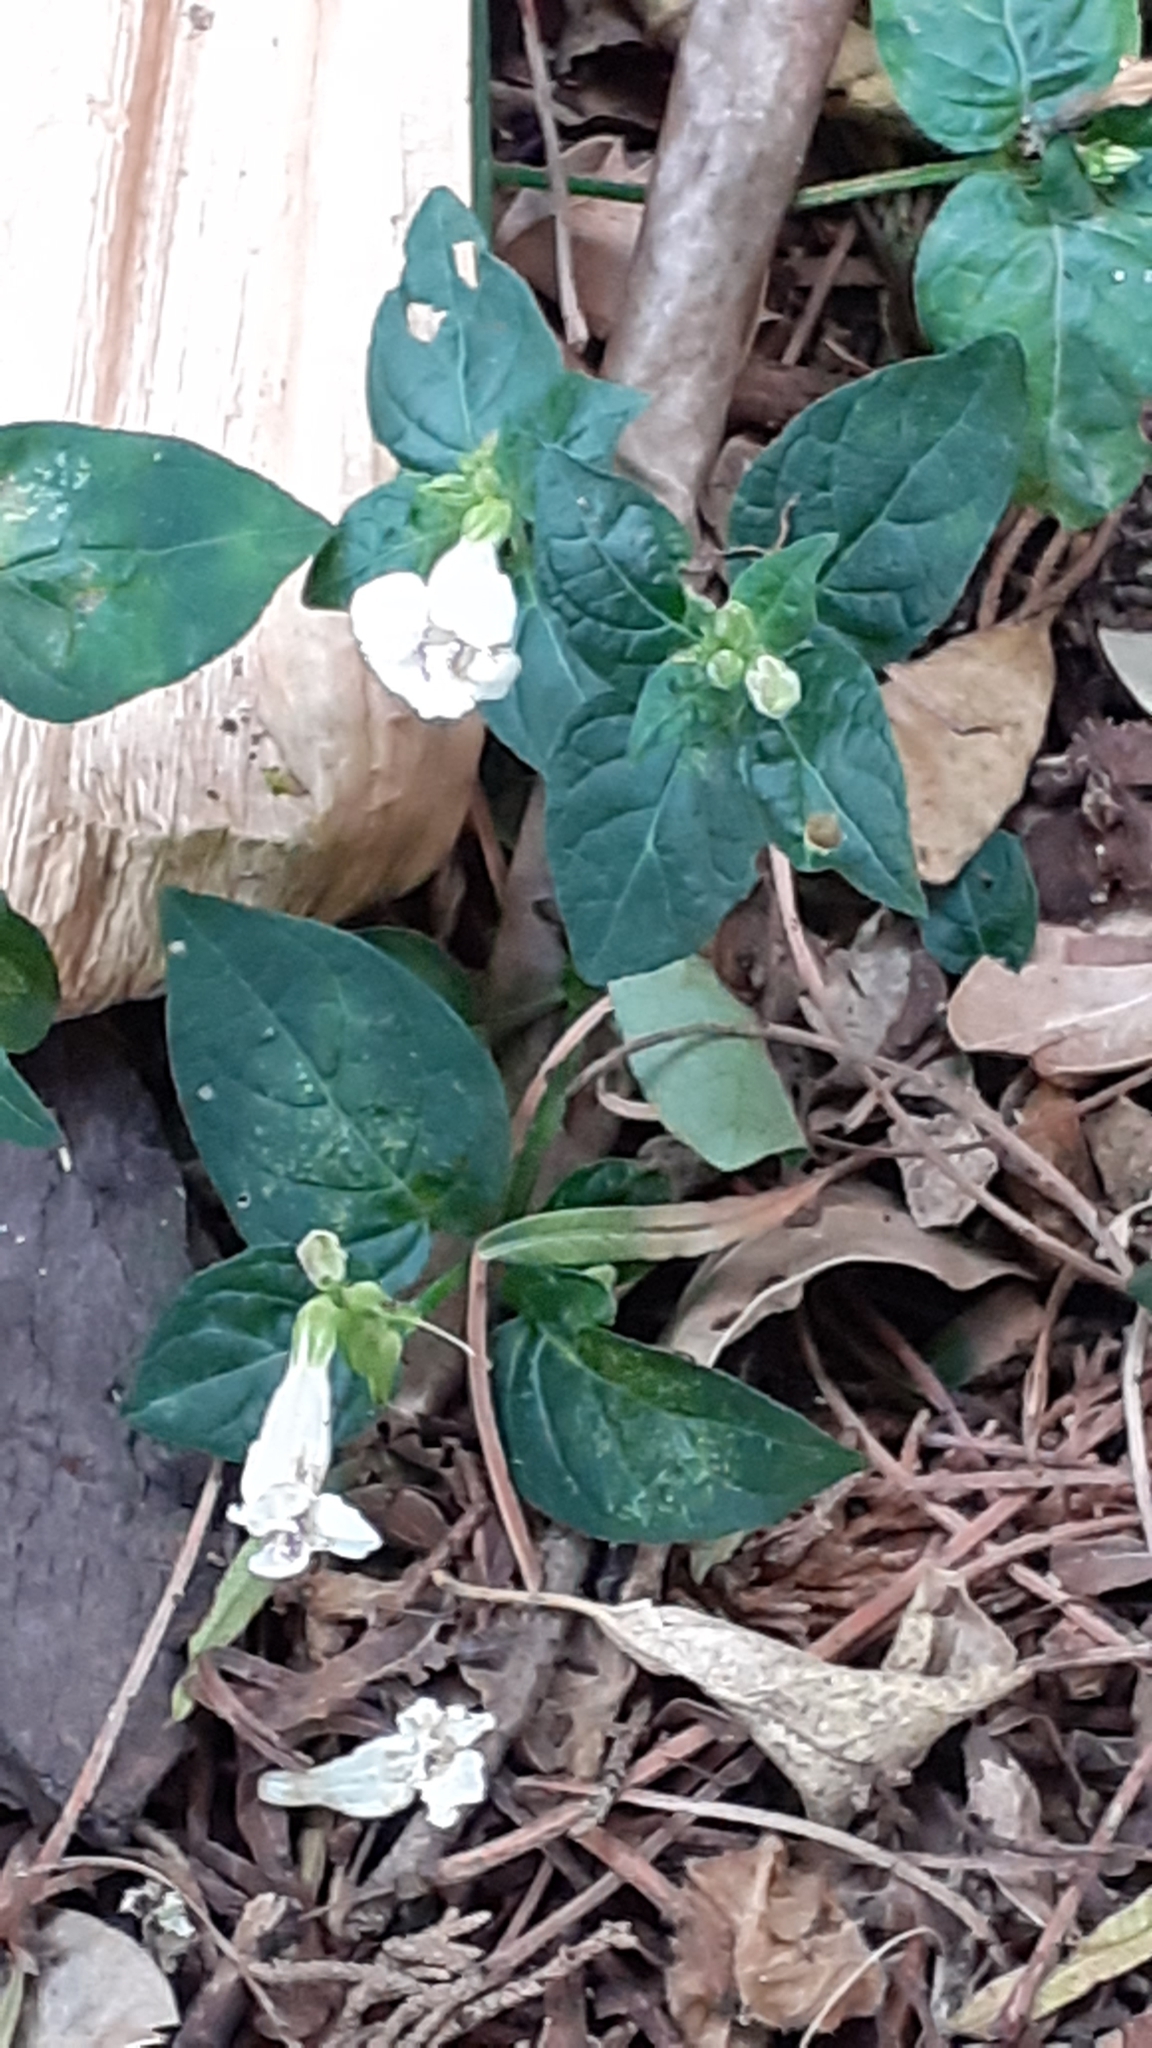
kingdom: Plantae
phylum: Tracheophyta
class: Magnoliopsida
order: Lamiales
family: Acanthaceae
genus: Asystasia
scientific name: Asystasia intrusa
